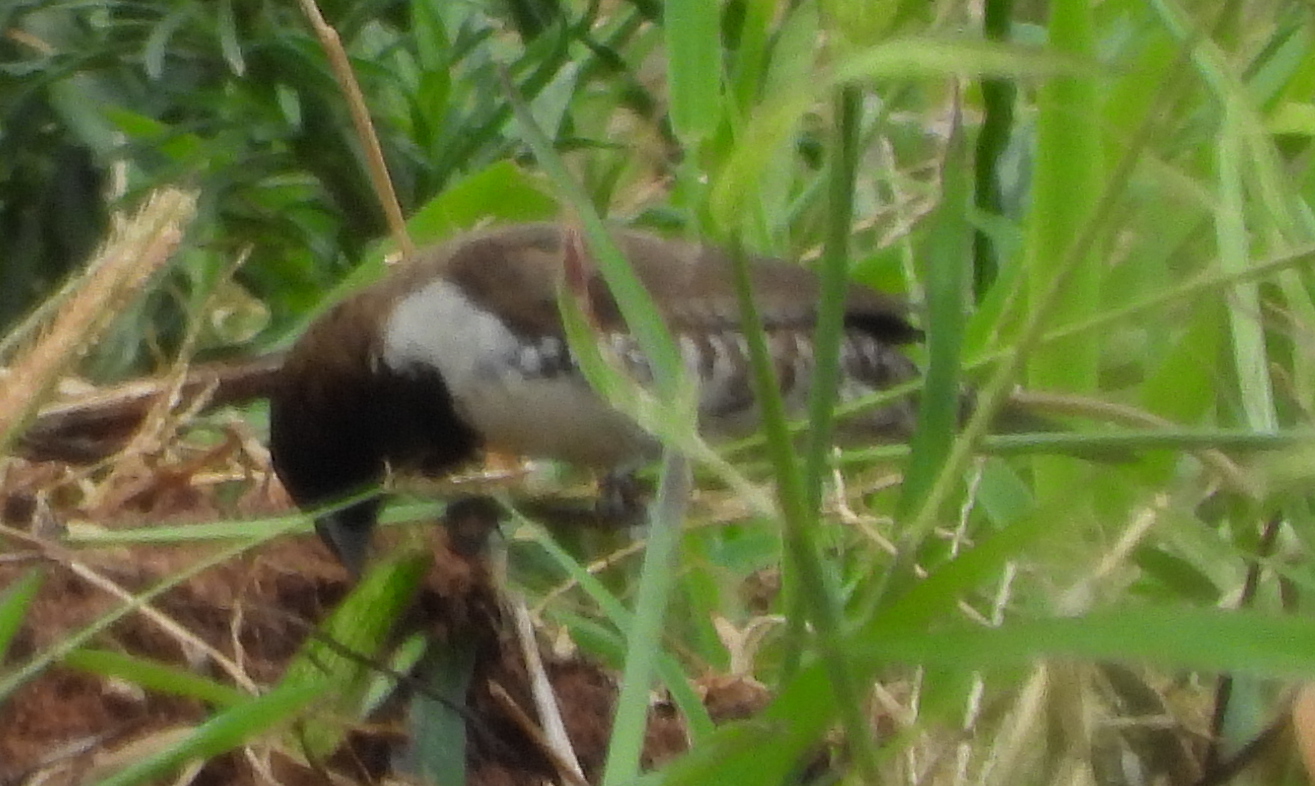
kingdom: Animalia
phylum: Chordata
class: Aves
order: Passeriformes
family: Estrildidae
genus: Lonchura
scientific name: Lonchura cucullata
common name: Bronze mannikin
